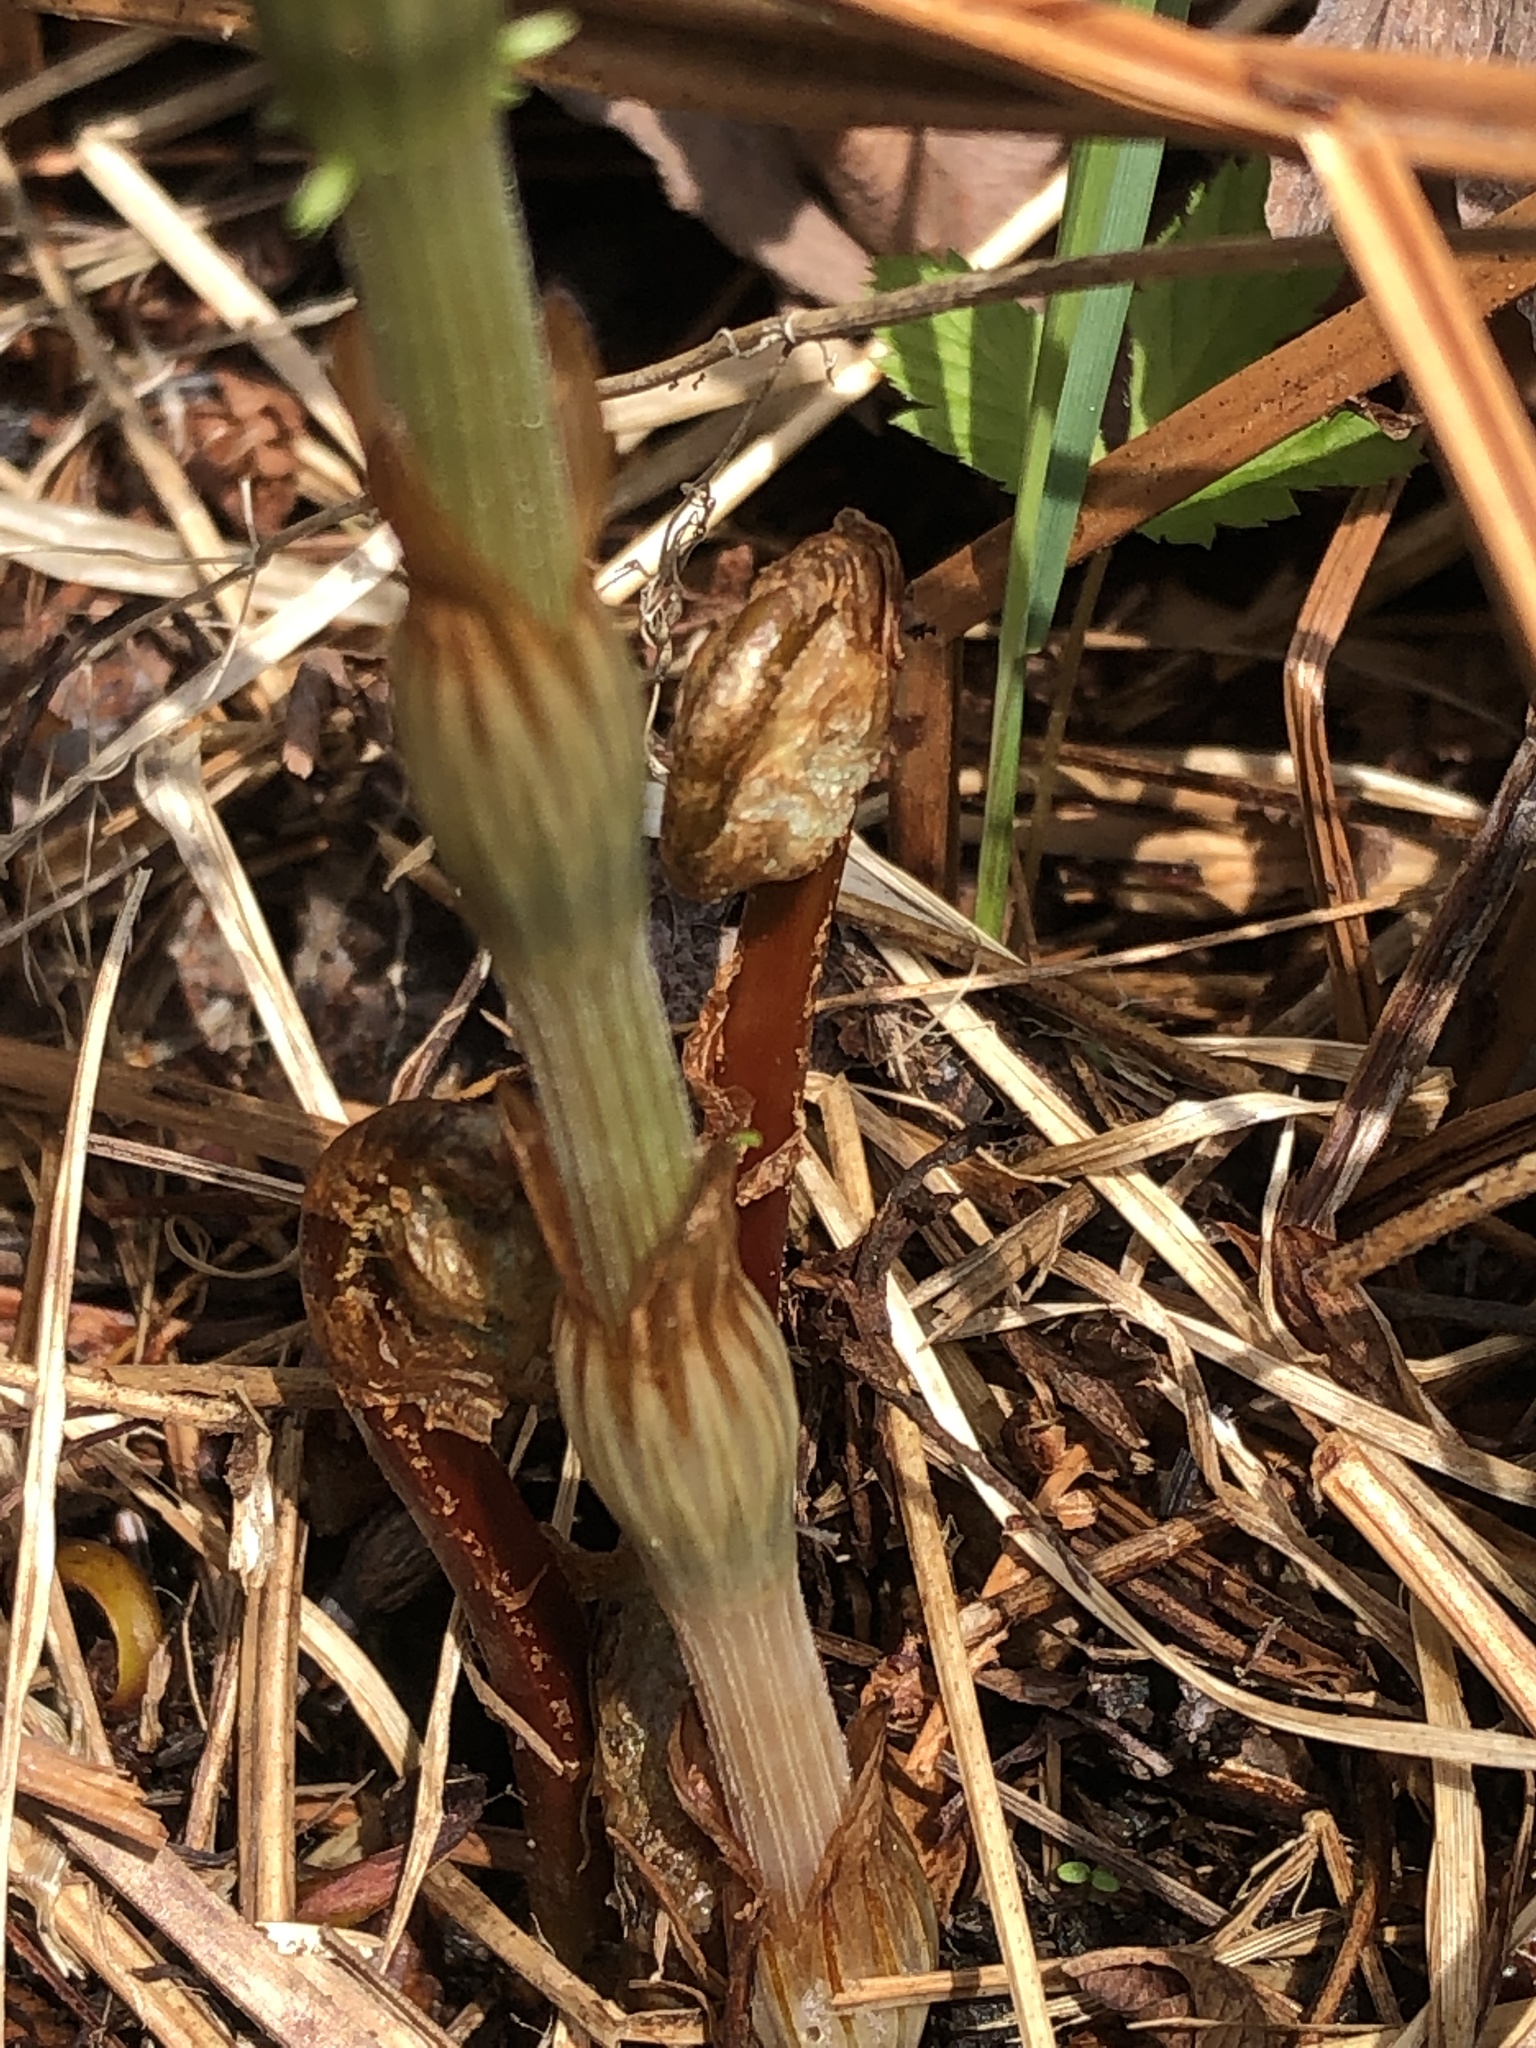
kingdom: Plantae
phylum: Tracheophyta
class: Polypodiopsida
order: Equisetales
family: Equisetaceae
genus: Equisetum
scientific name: Equisetum sylvaticum
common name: Wood horsetail
